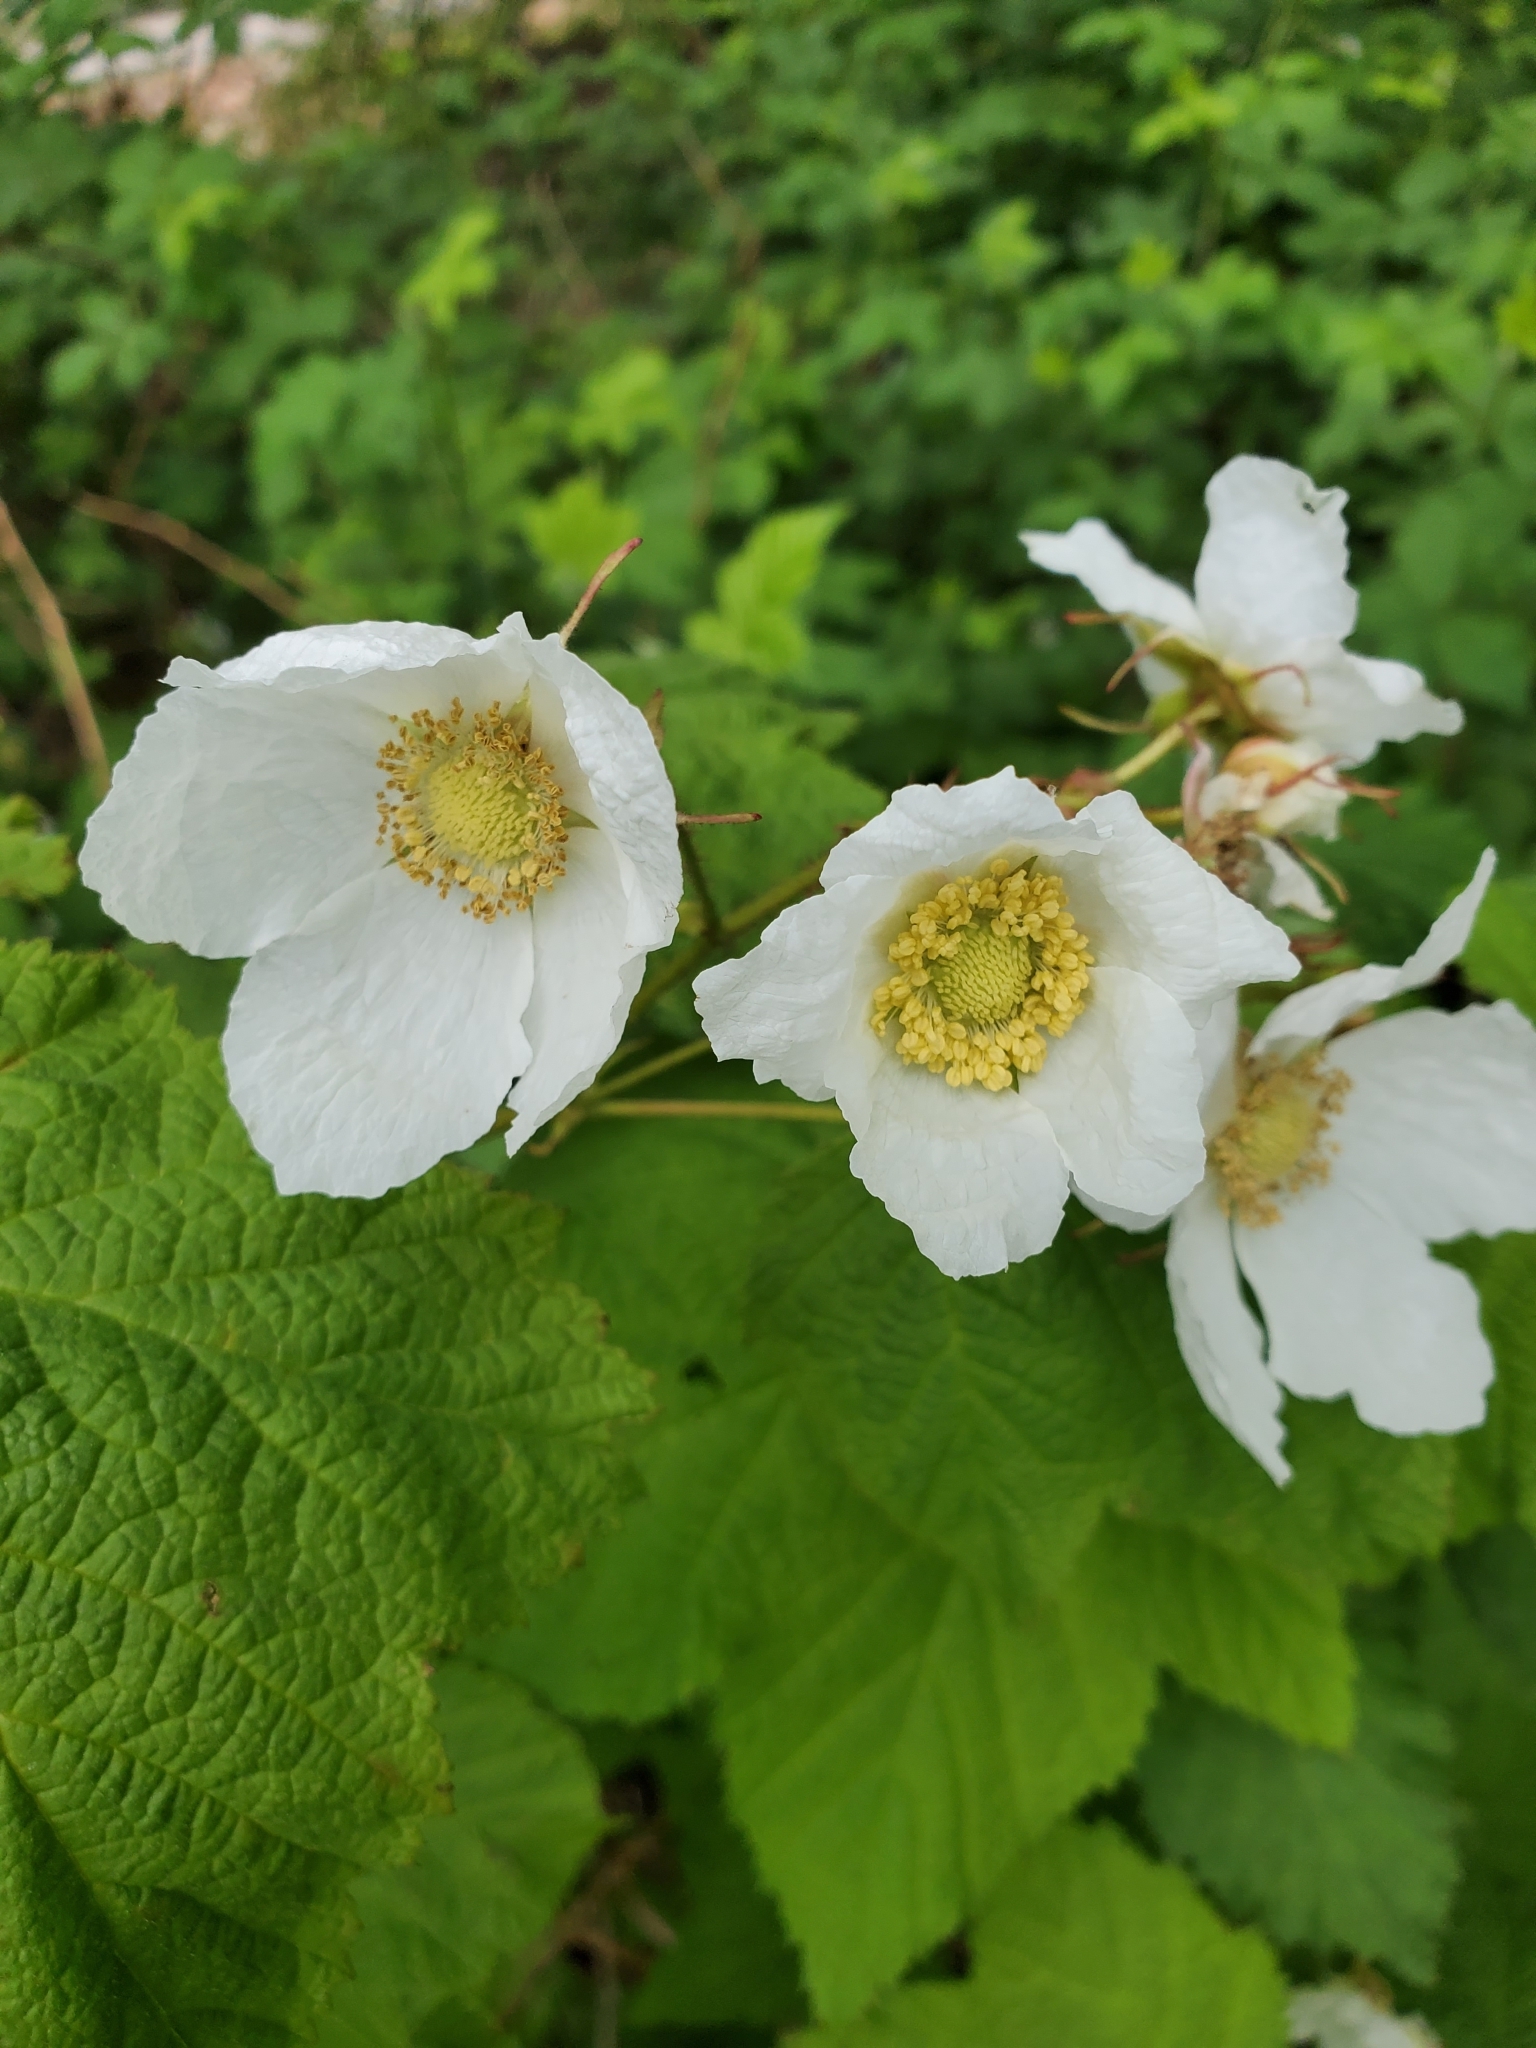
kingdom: Plantae
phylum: Tracheophyta
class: Magnoliopsida
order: Rosales
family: Rosaceae
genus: Rubus
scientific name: Rubus parviflorus
